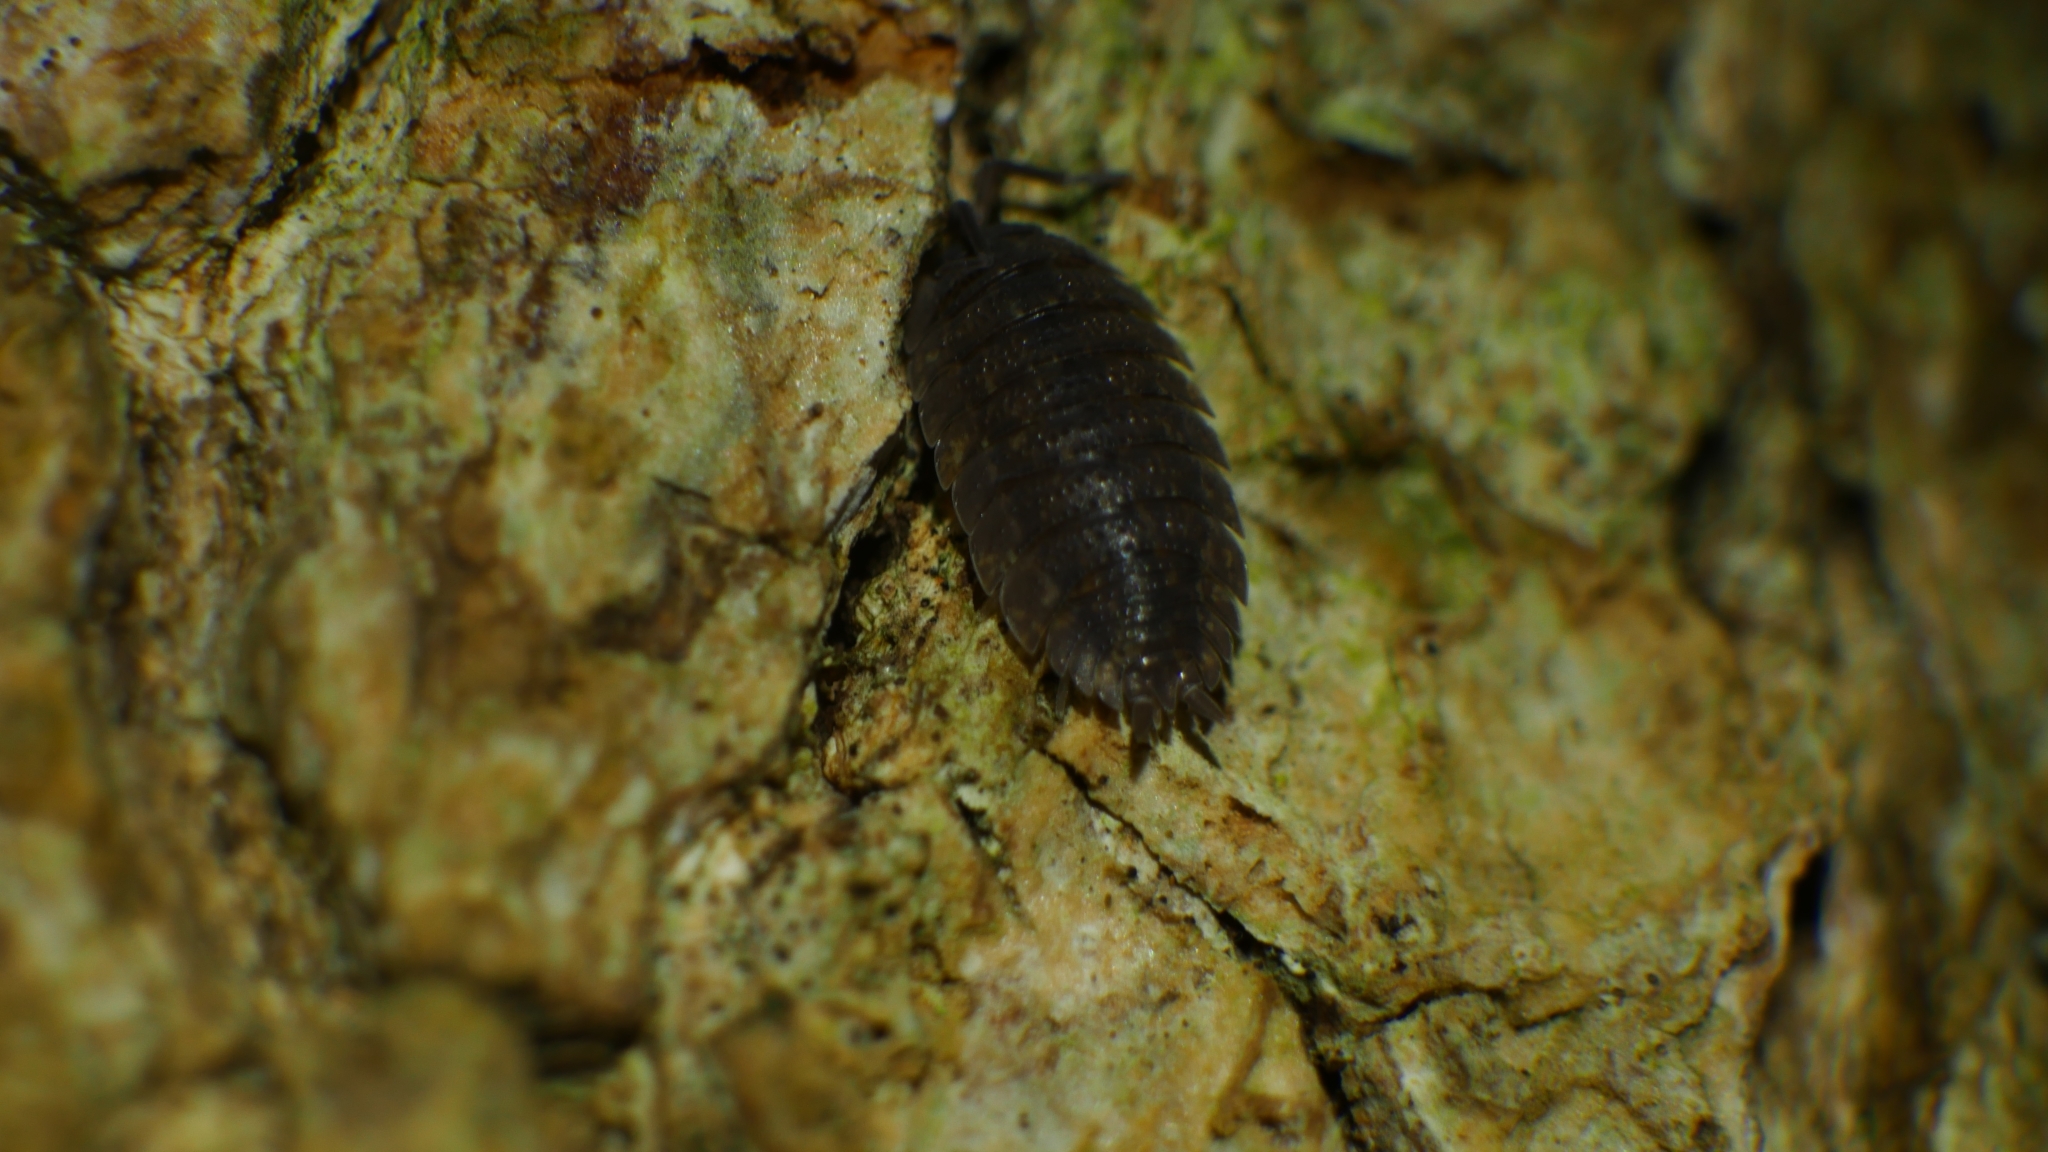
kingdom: Animalia
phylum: Arthropoda
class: Malacostraca
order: Isopoda
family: Porcellionidae
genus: Porcellio
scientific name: Porcellio scaber
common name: Common rough woodlouse
